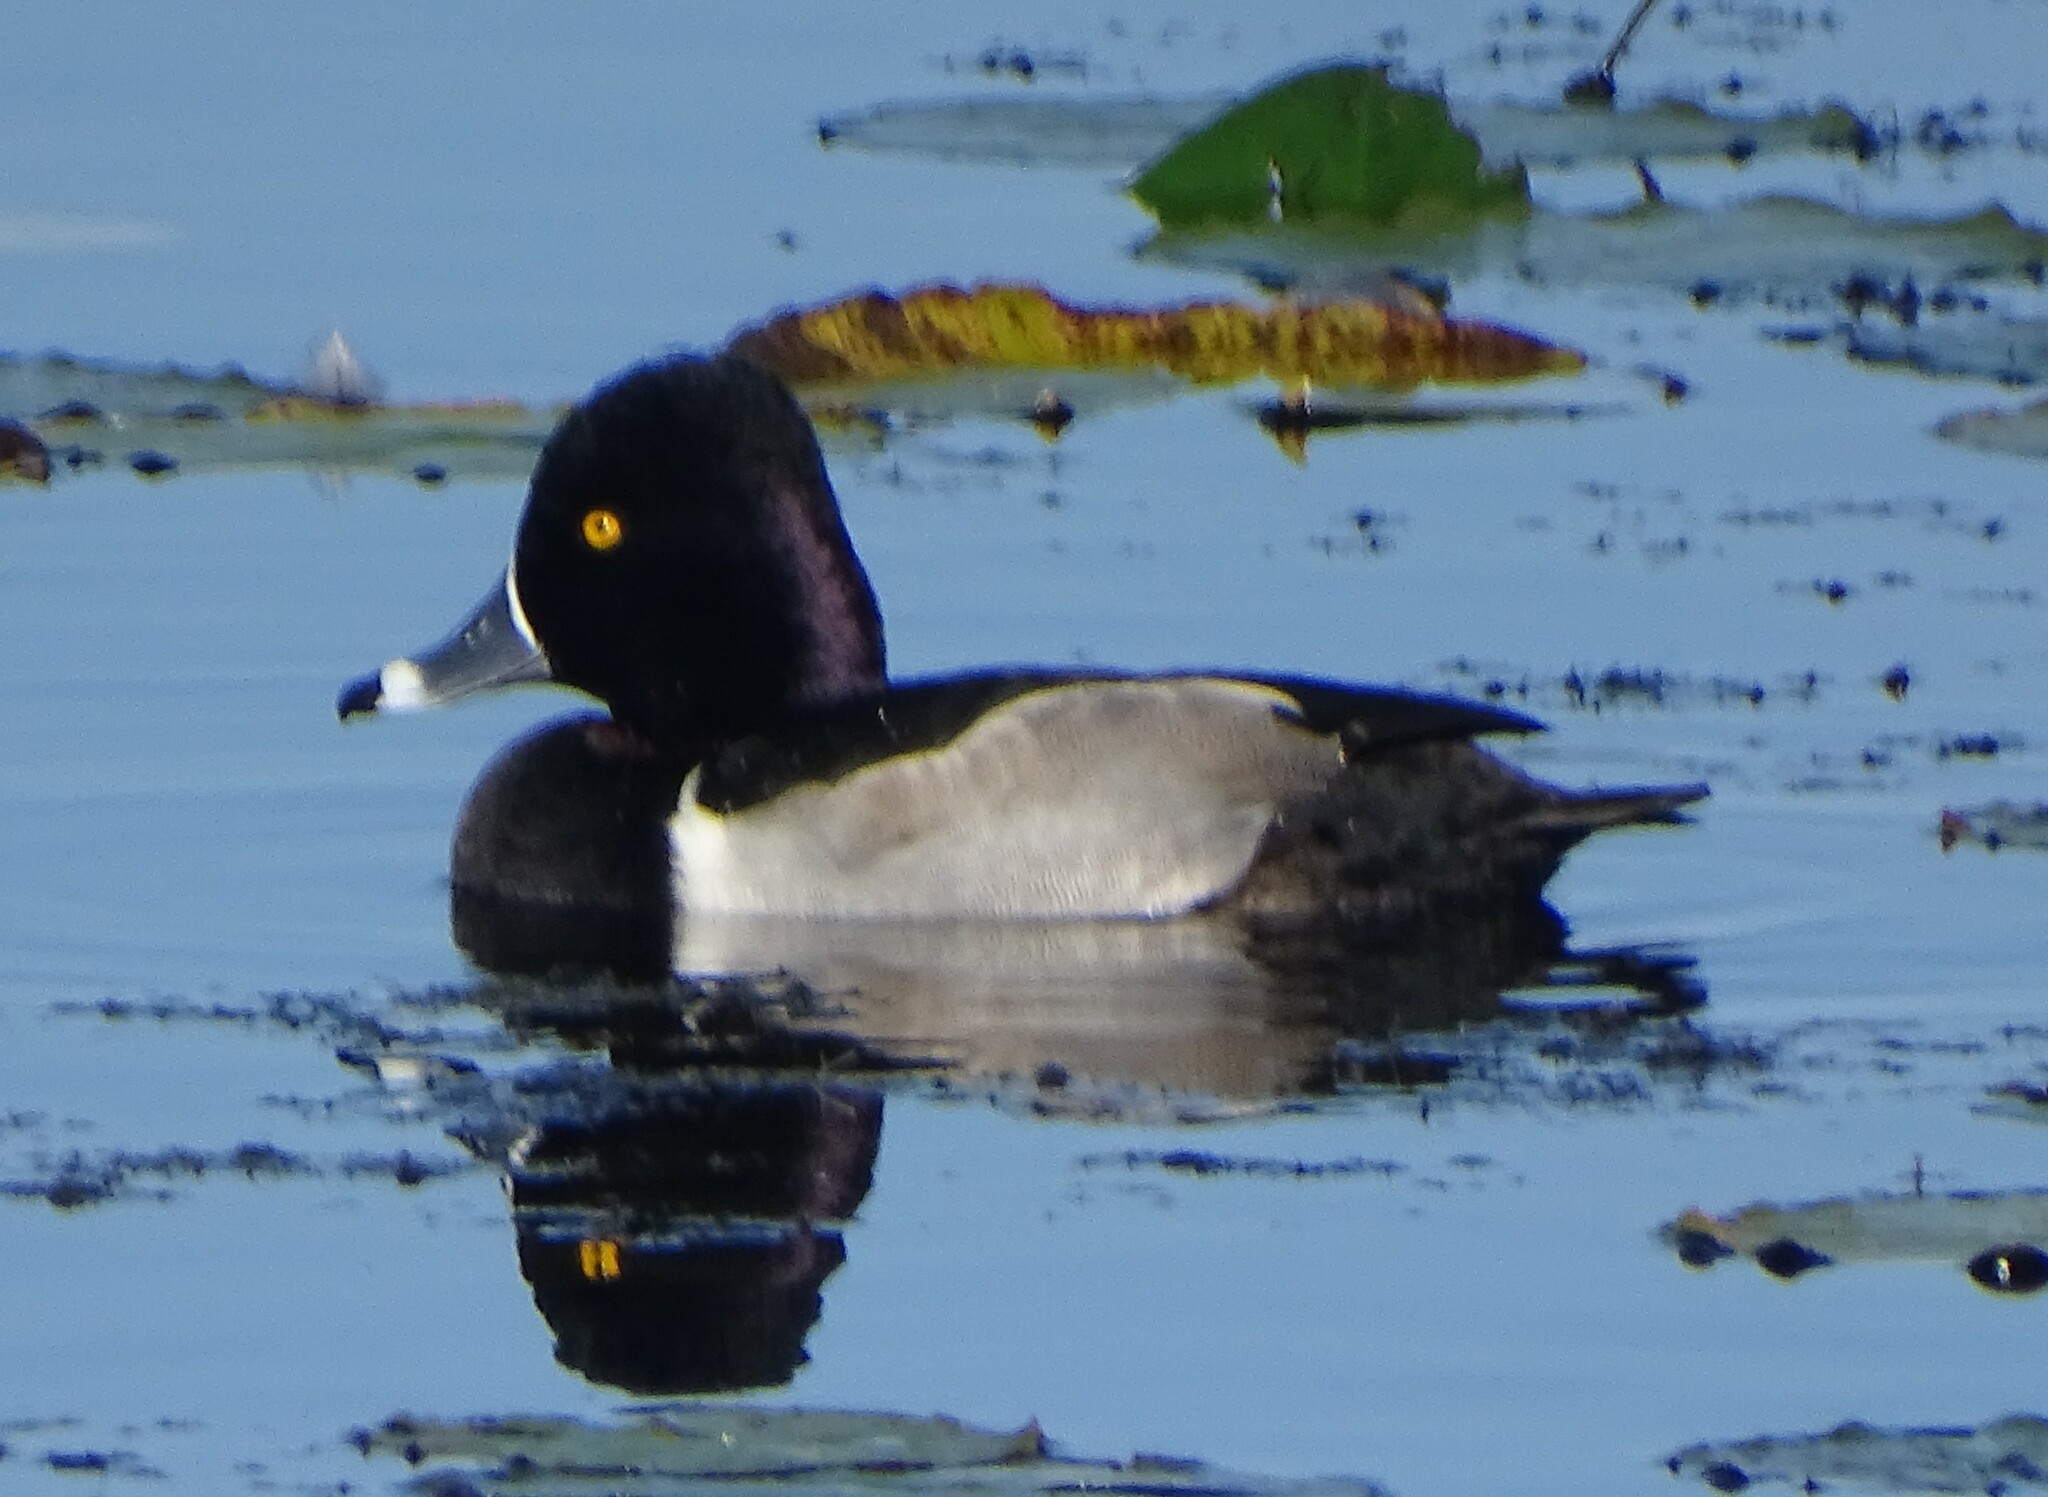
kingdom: Animalia
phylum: Chordata
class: Aves
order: Anseriformes
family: Anatidae
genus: Aythya
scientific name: Aythya collaris
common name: Ring-necked duck
